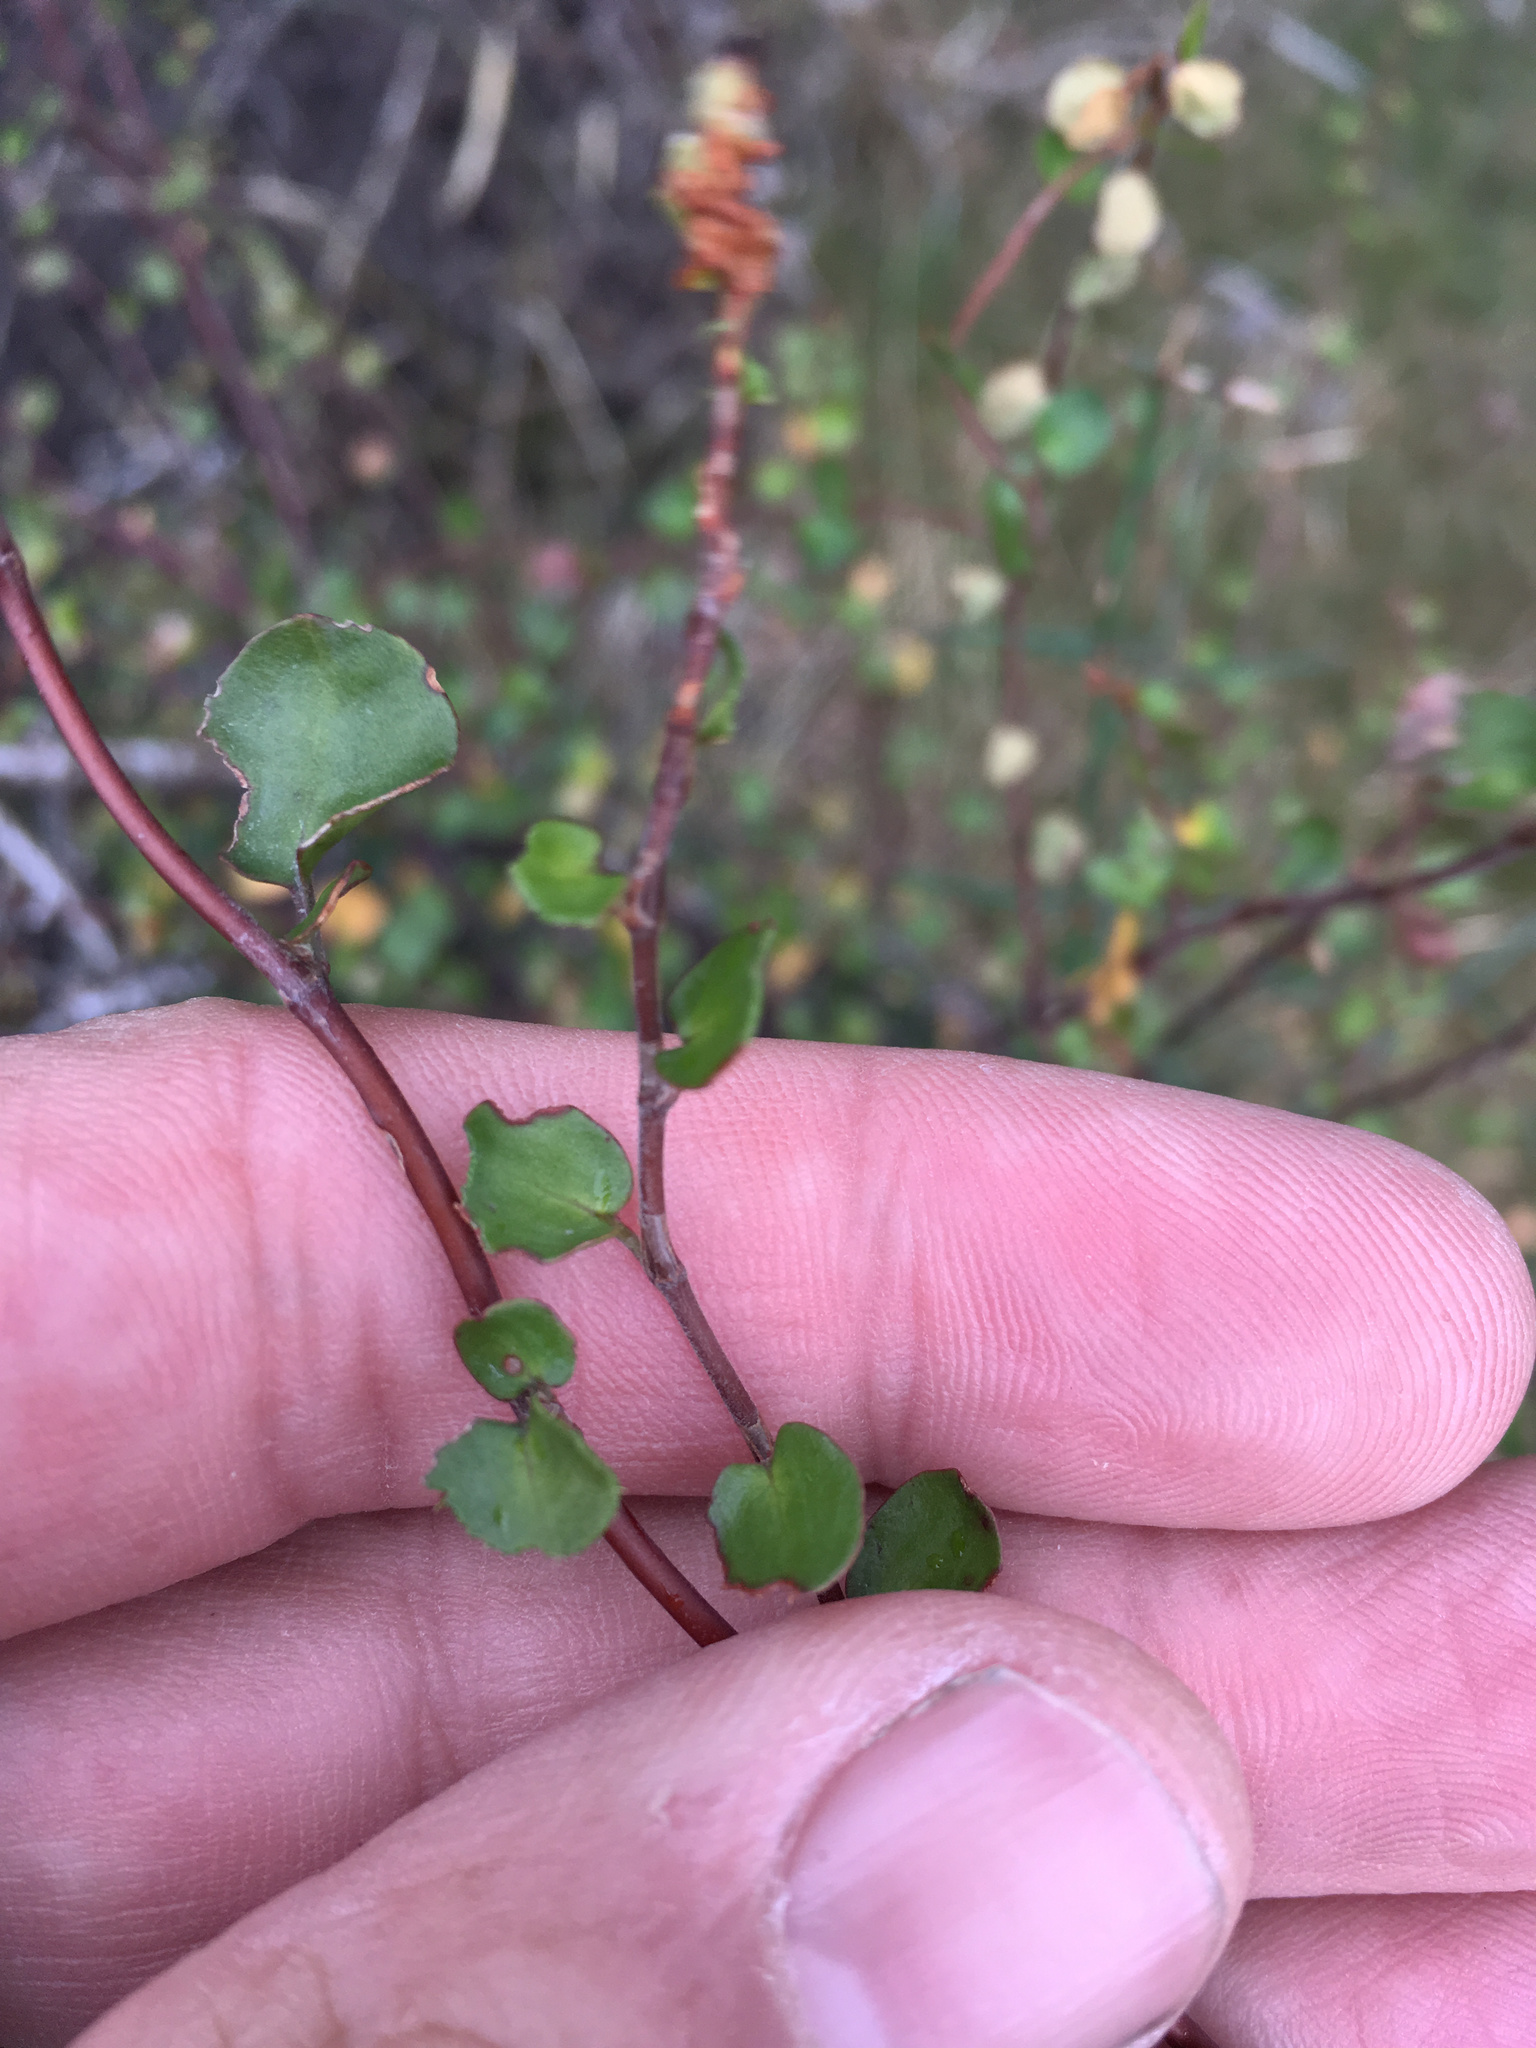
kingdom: Plantae
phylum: Tracheophyta
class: Magnoliopsida
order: Caryophyllales
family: Polygonaceae
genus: Muehlenbeckia
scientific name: Muehlenbeckia complexa
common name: Wireplant
